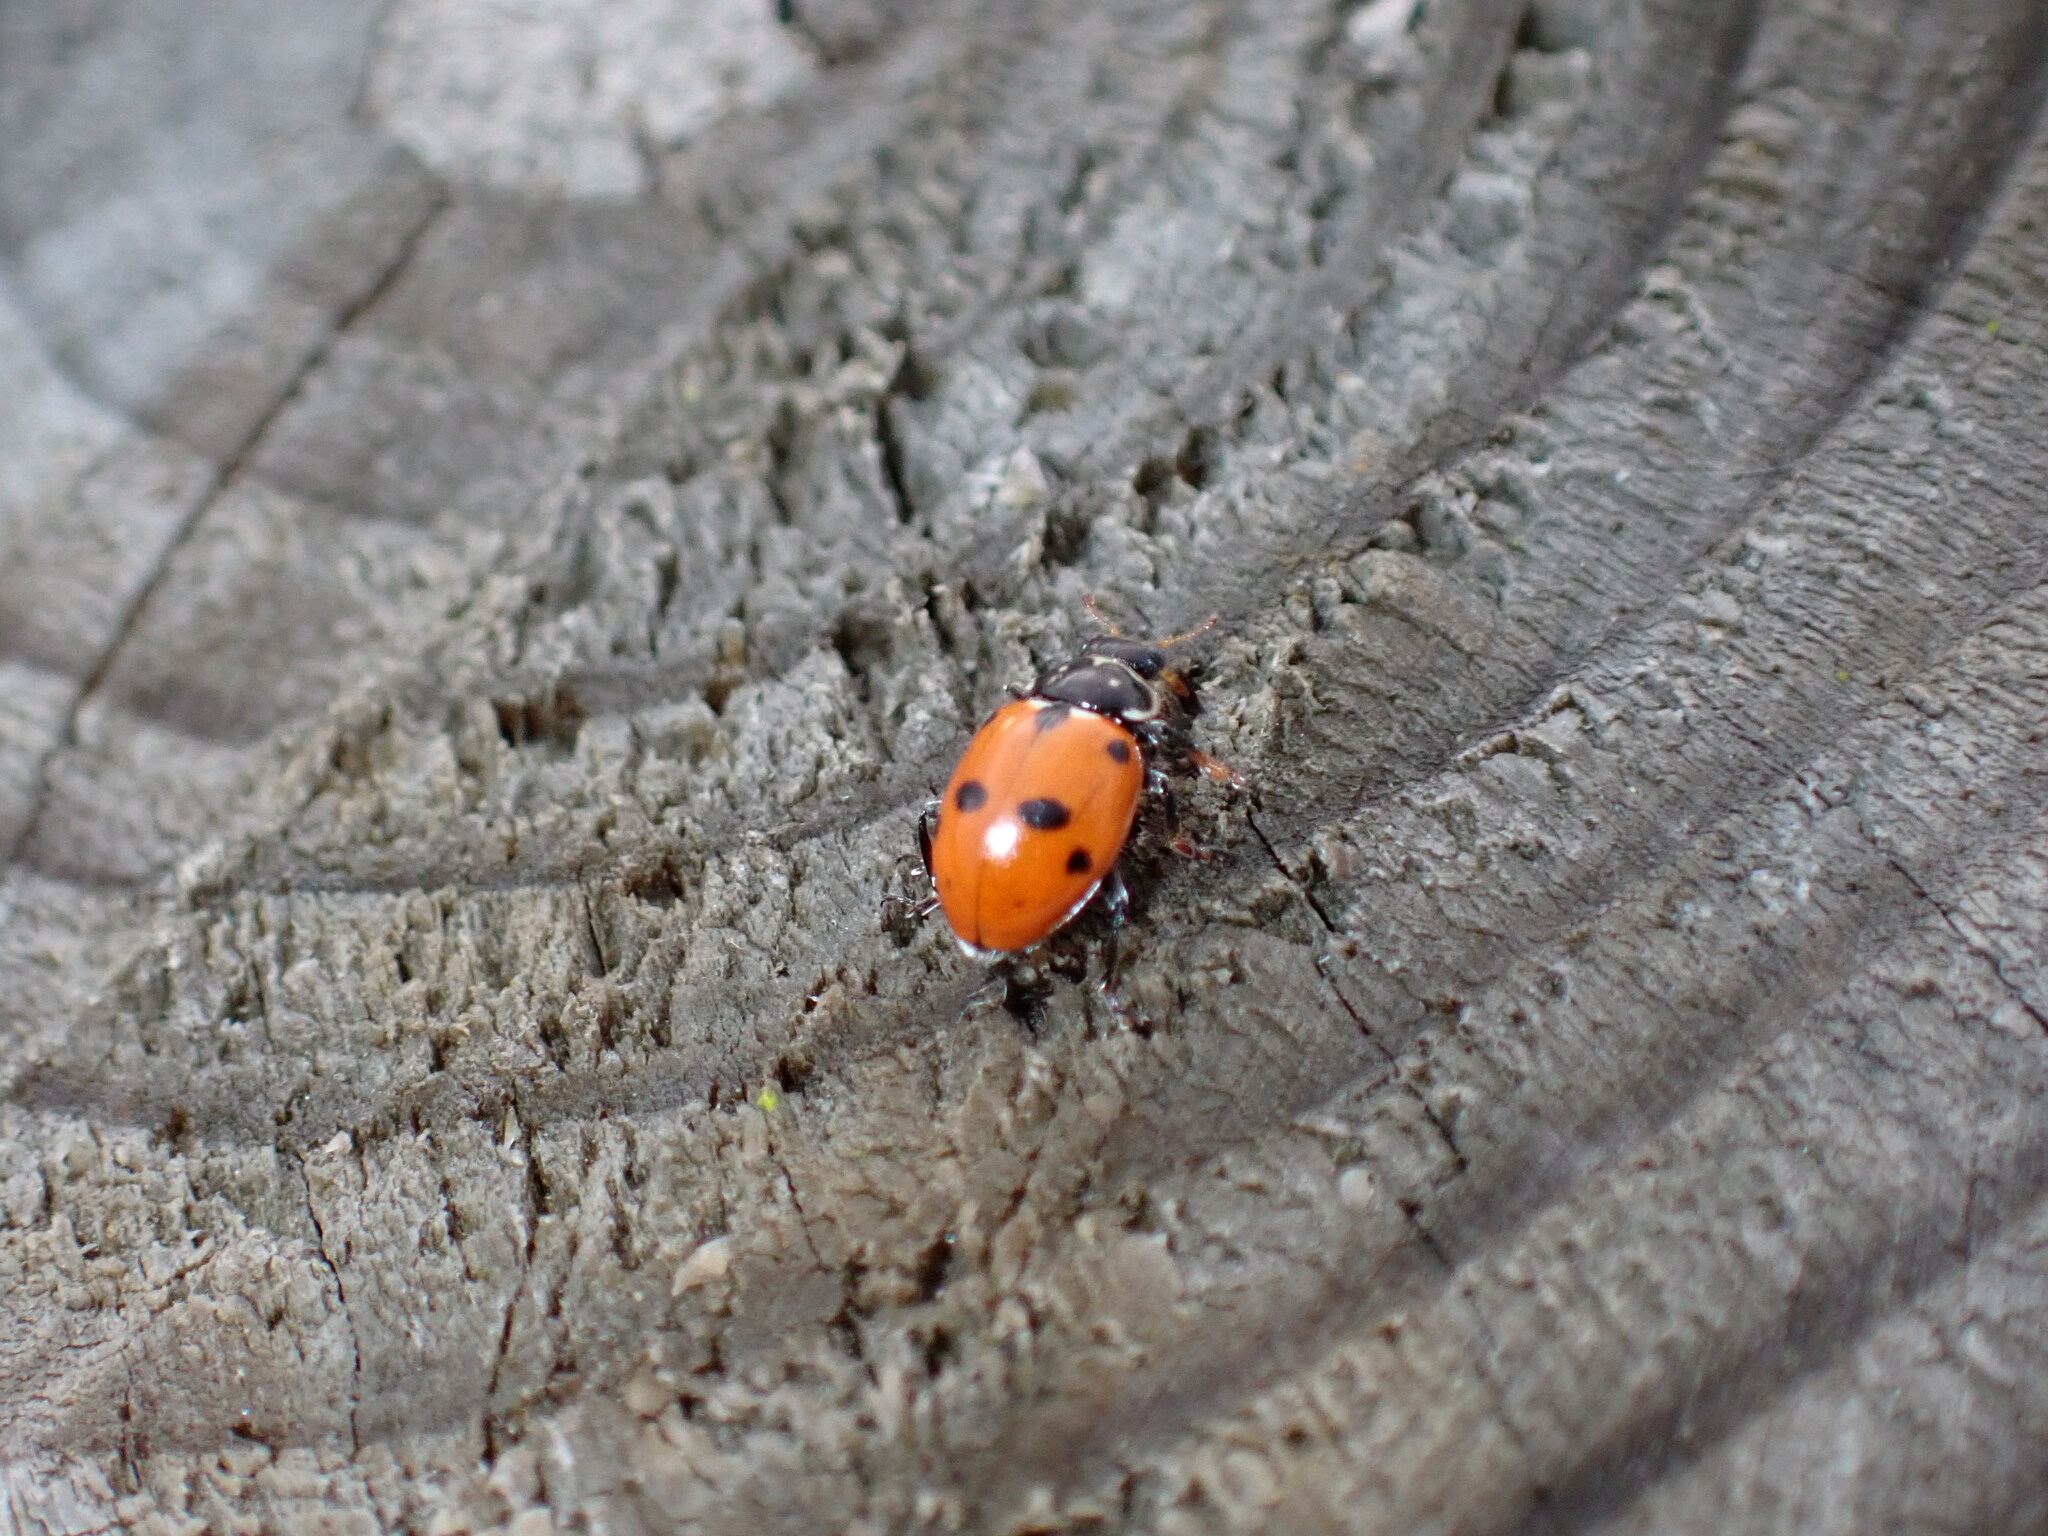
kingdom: Animalia
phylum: Arthropoda
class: Insecta
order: Coleoptera
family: Coccinellidae
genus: Hippodamia
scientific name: Hippodamia variegata
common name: Ladybird beetle
